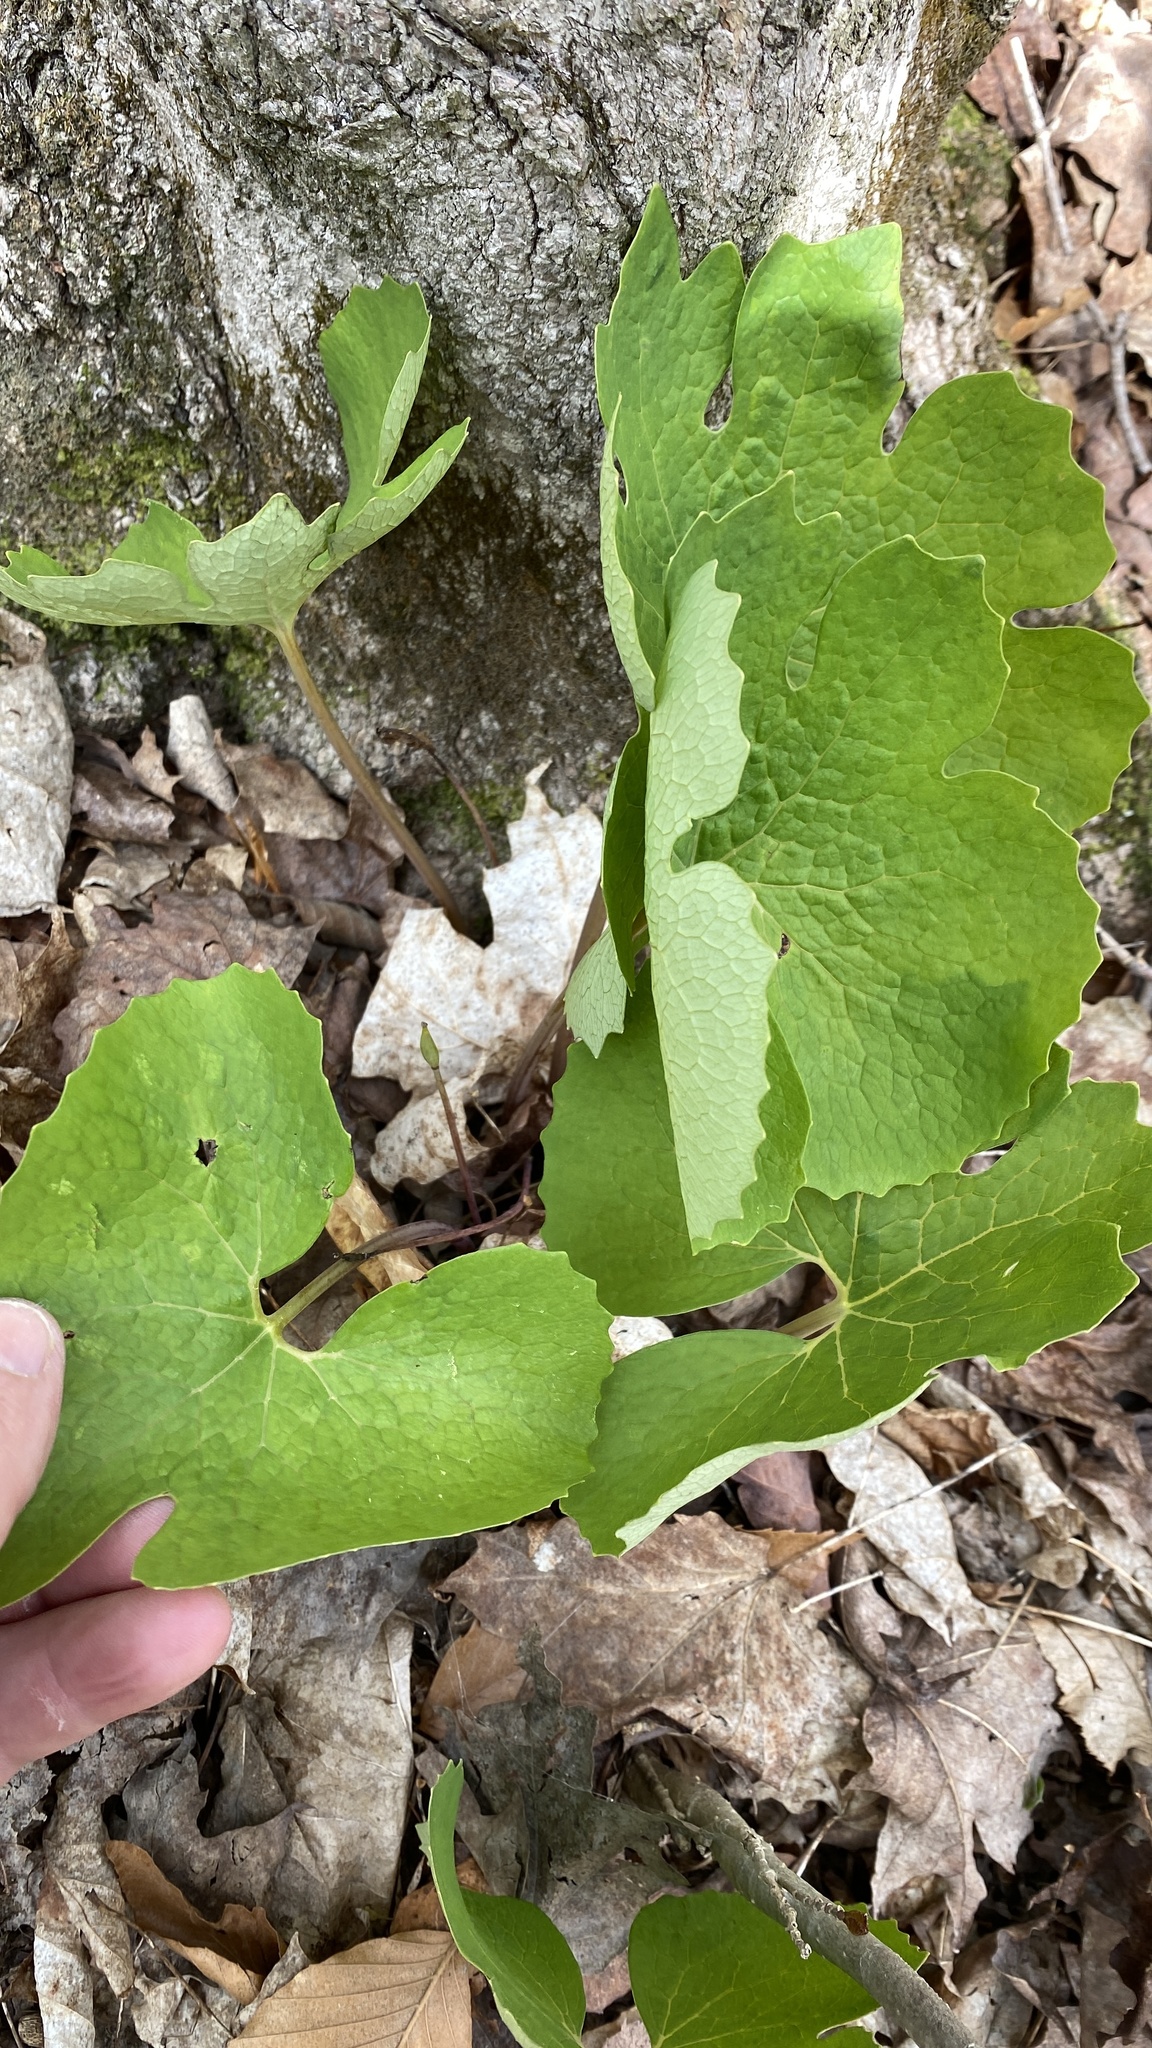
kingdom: Plantae
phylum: Tracheophyta
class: Magnoliopsida
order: Ranunculales
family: Papaveraceae
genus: Sanguinaria
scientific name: Sanguinaria canadensis
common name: Bloodroot
